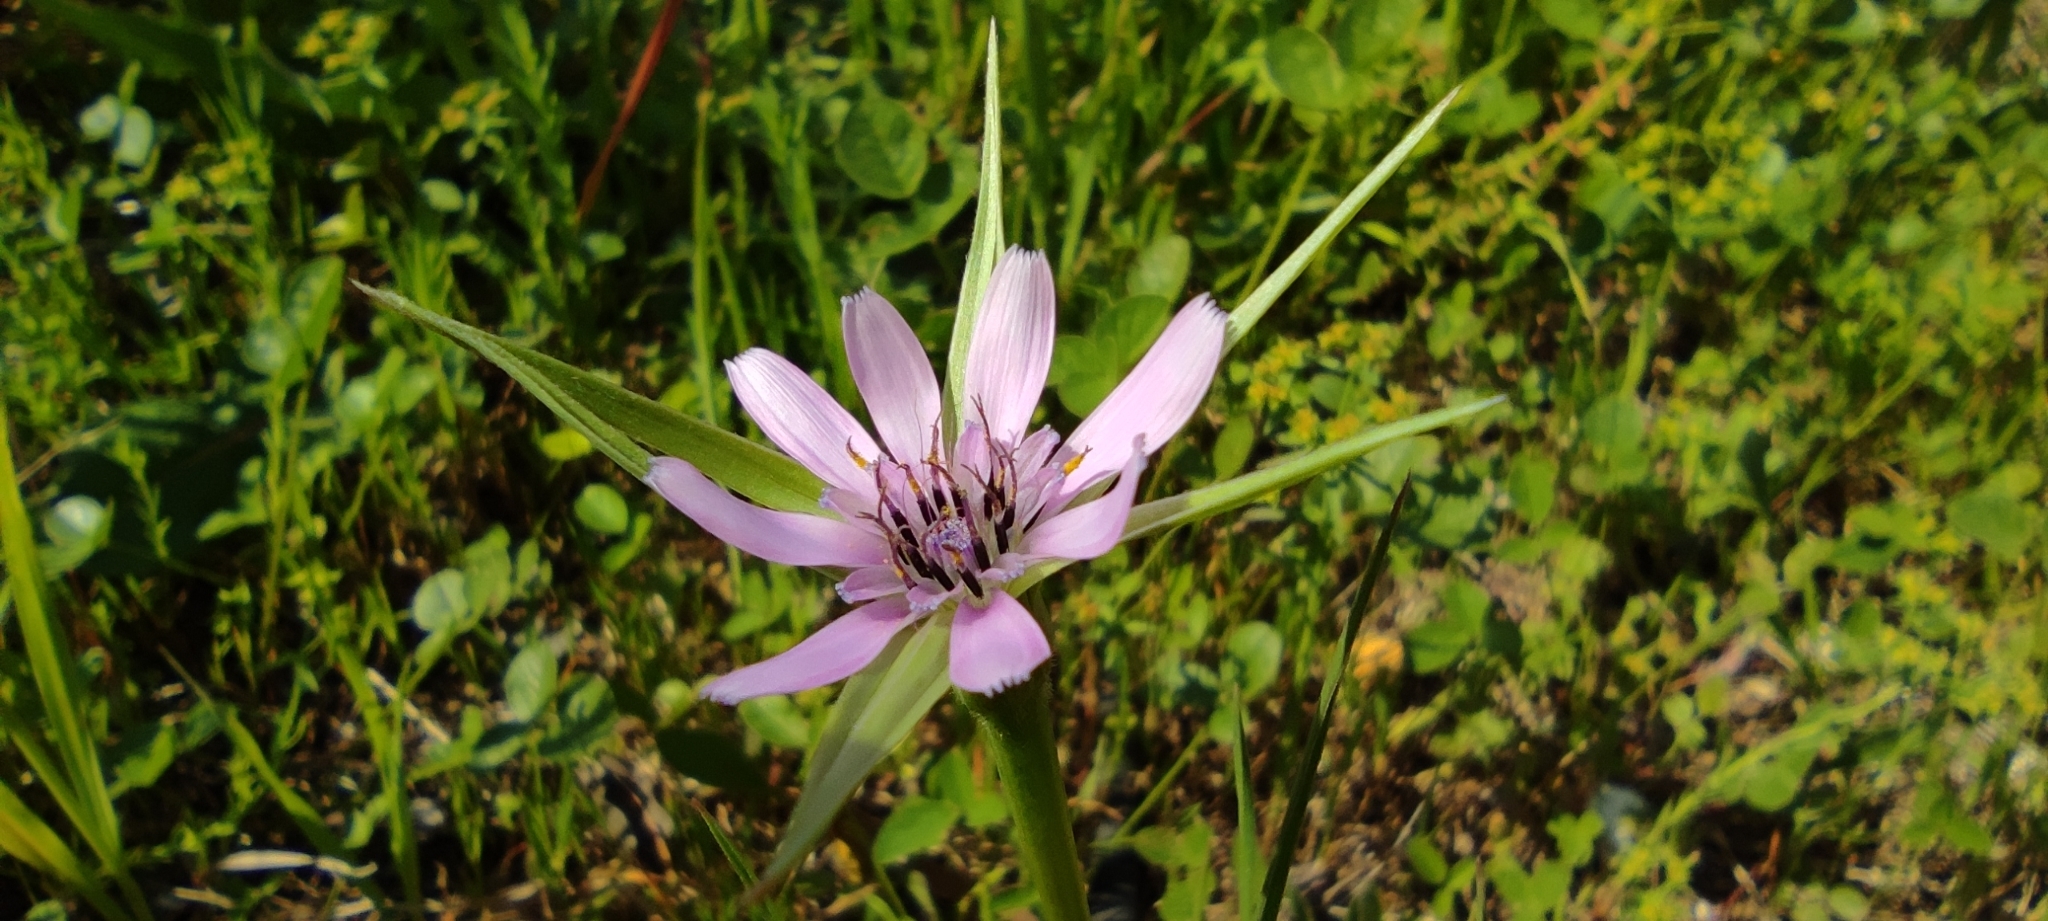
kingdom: Plantae
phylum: Tracheophyta
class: Magnoliopsida
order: Asterales
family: Asteraceae
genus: Geropogon
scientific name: Geropogon hybridus
